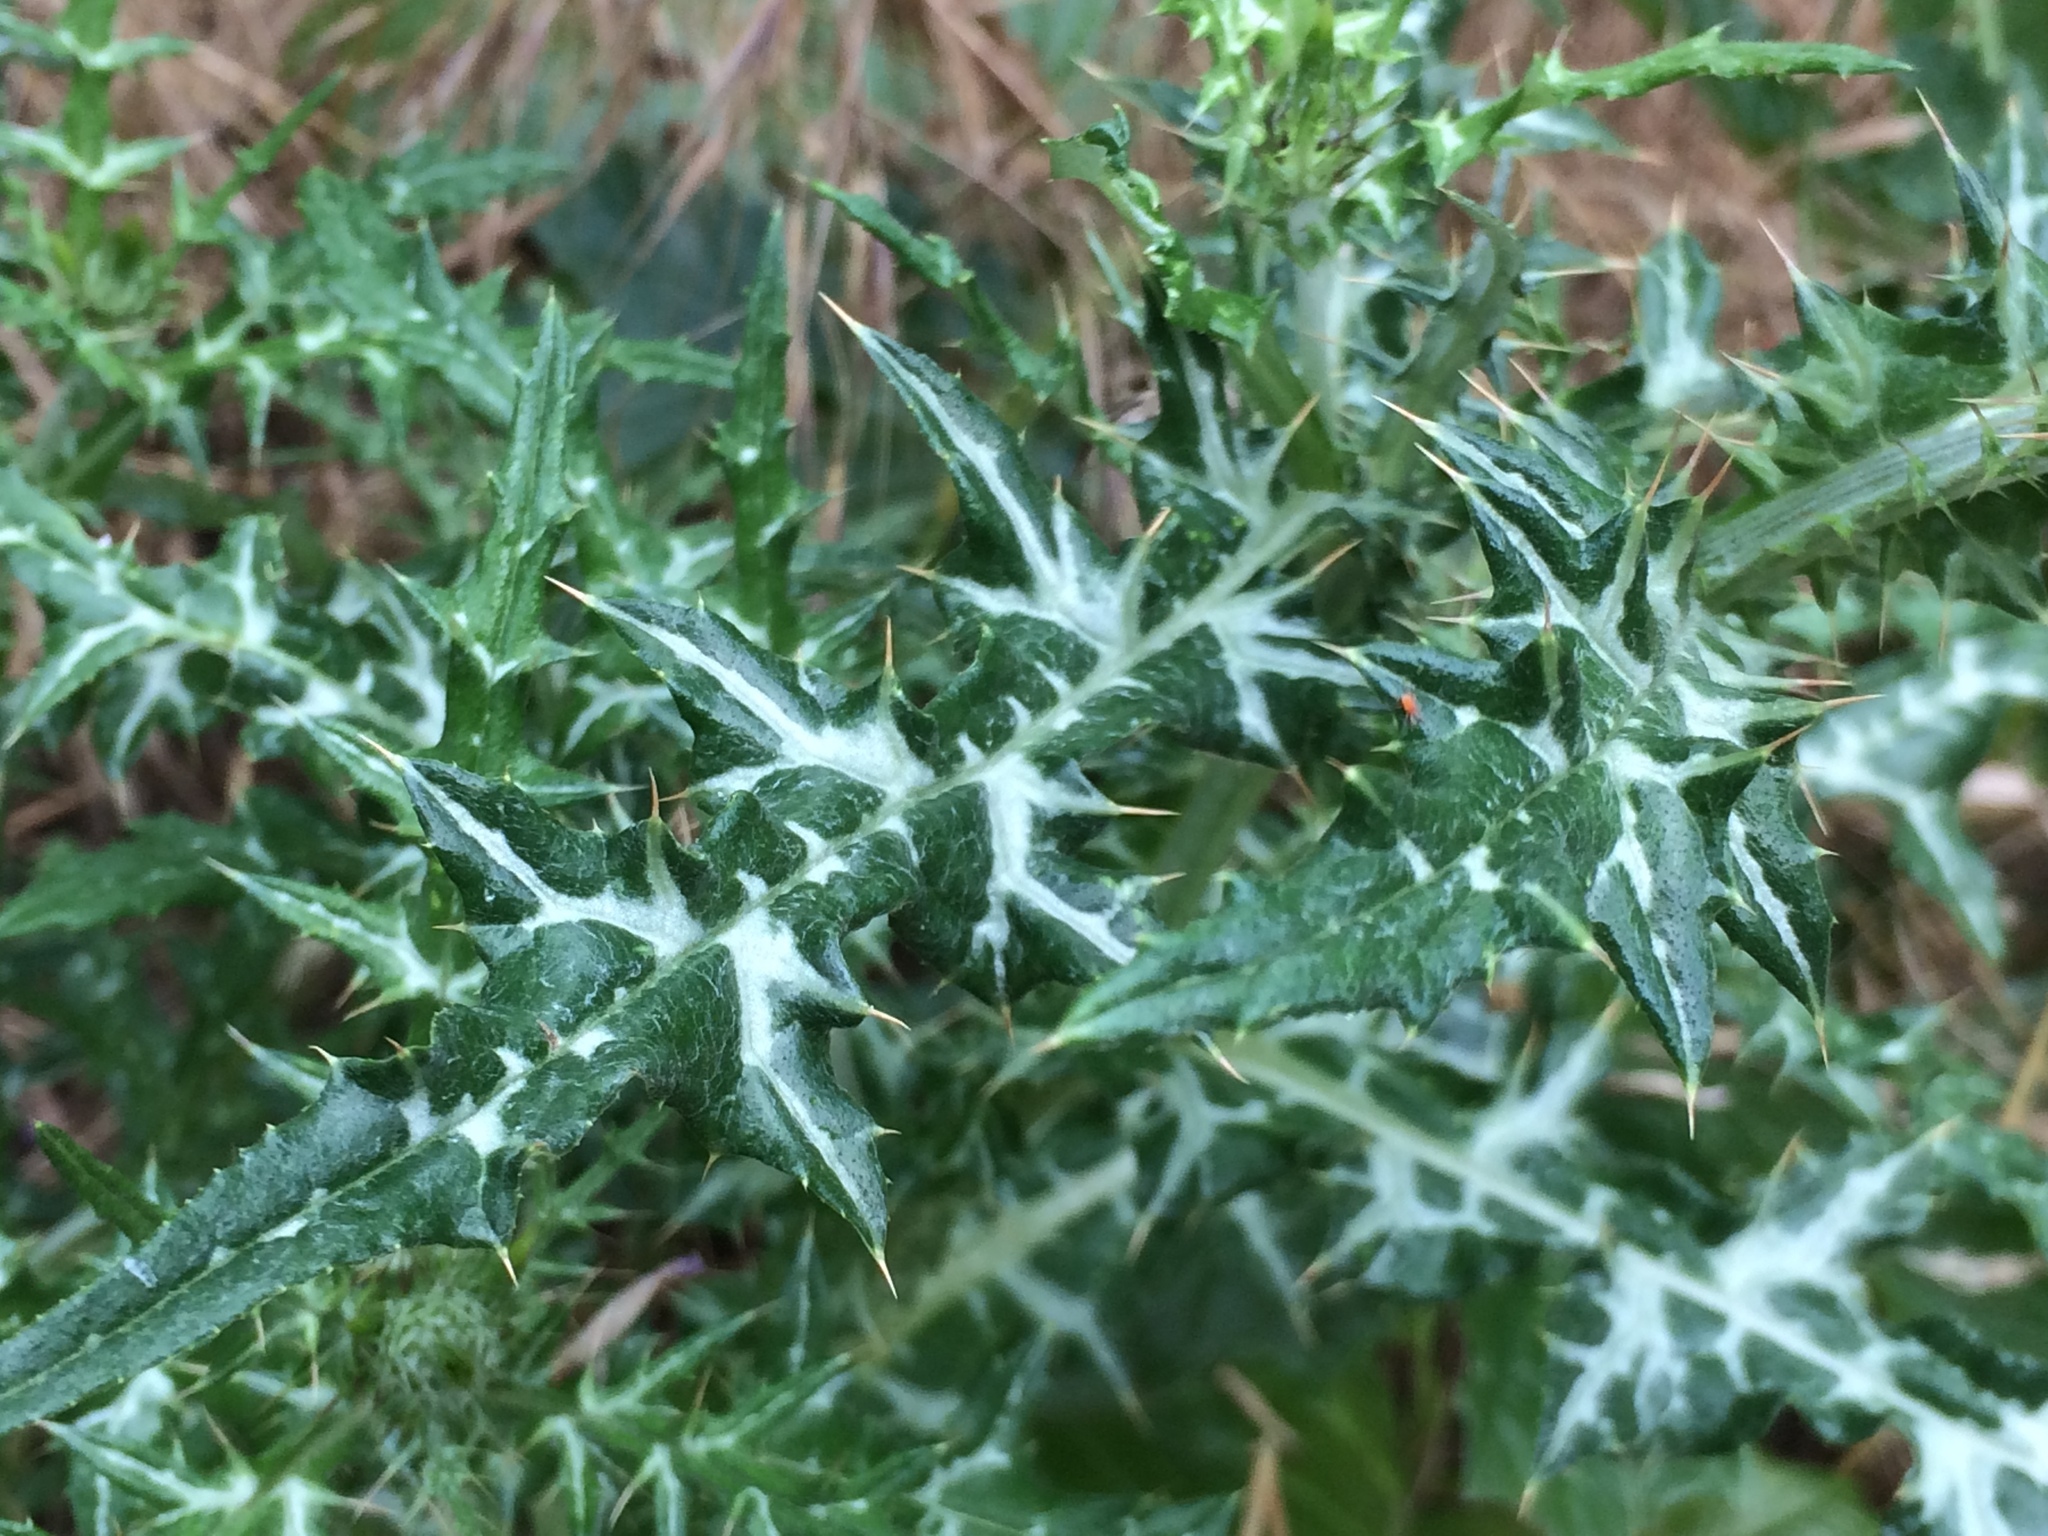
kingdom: Plantae
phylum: Tracheophyta
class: Magnoliopsida
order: Asterales
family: Asteraceae
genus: Galactites
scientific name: Galactites tomentosa
